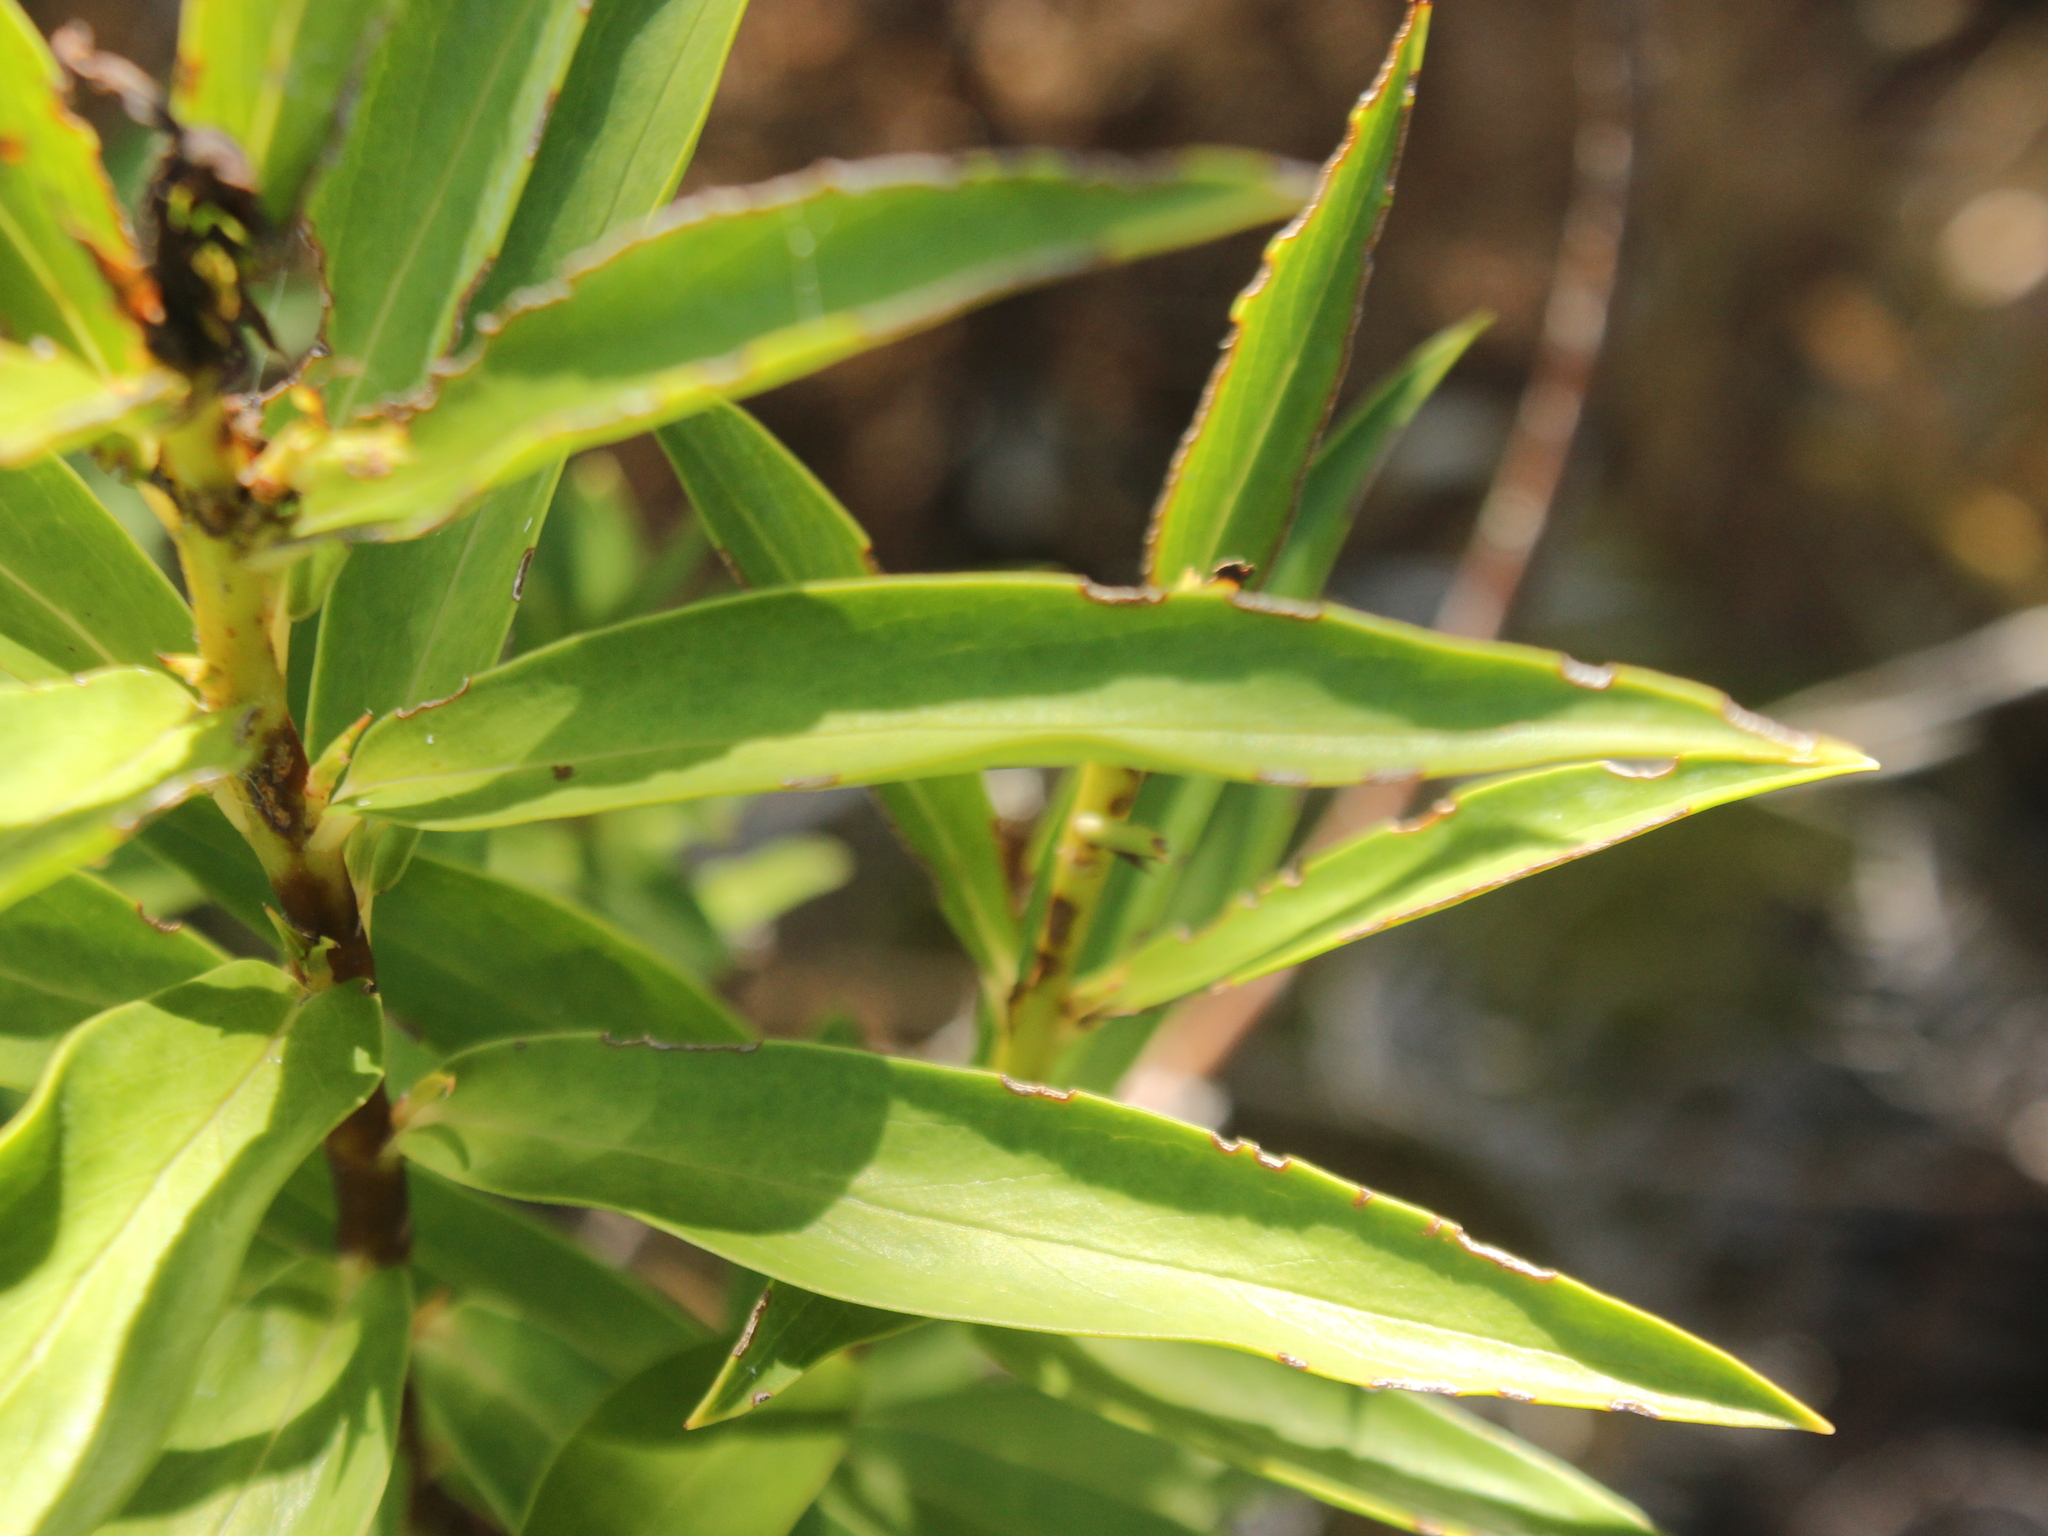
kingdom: Plantae
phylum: Tracheophyta
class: Magnoliopsida
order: Malvales
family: Thymelaeaceae
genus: Pimelea
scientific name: Pimelea longifolia
